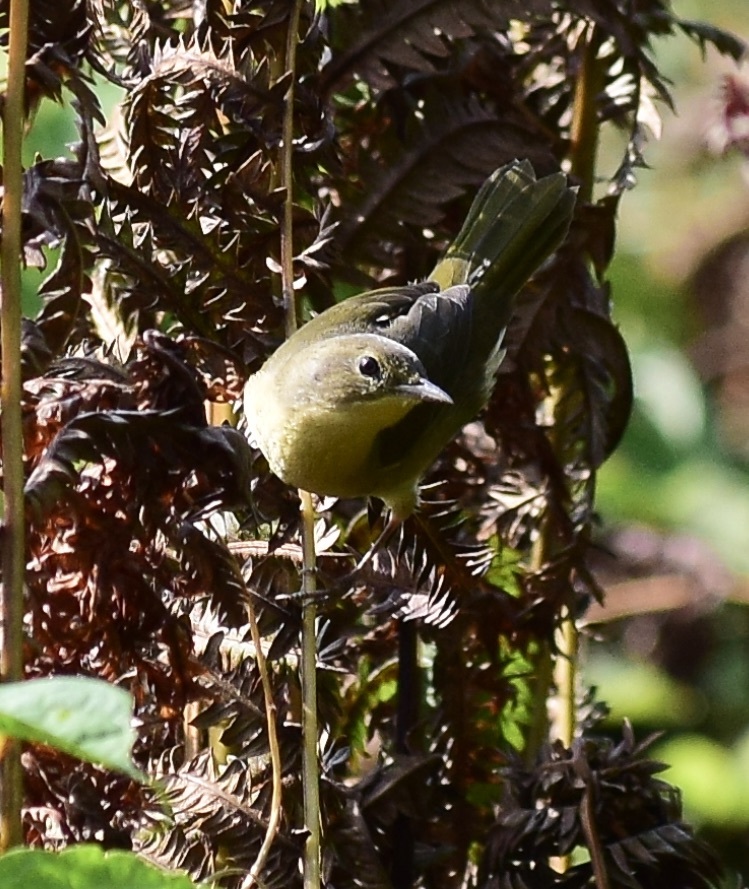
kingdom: Animalia
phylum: Chordata
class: Aves
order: Passeriformes
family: Parulidae
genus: Geothlypis
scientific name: Geothlypis trichas
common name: Common yellowthroat
